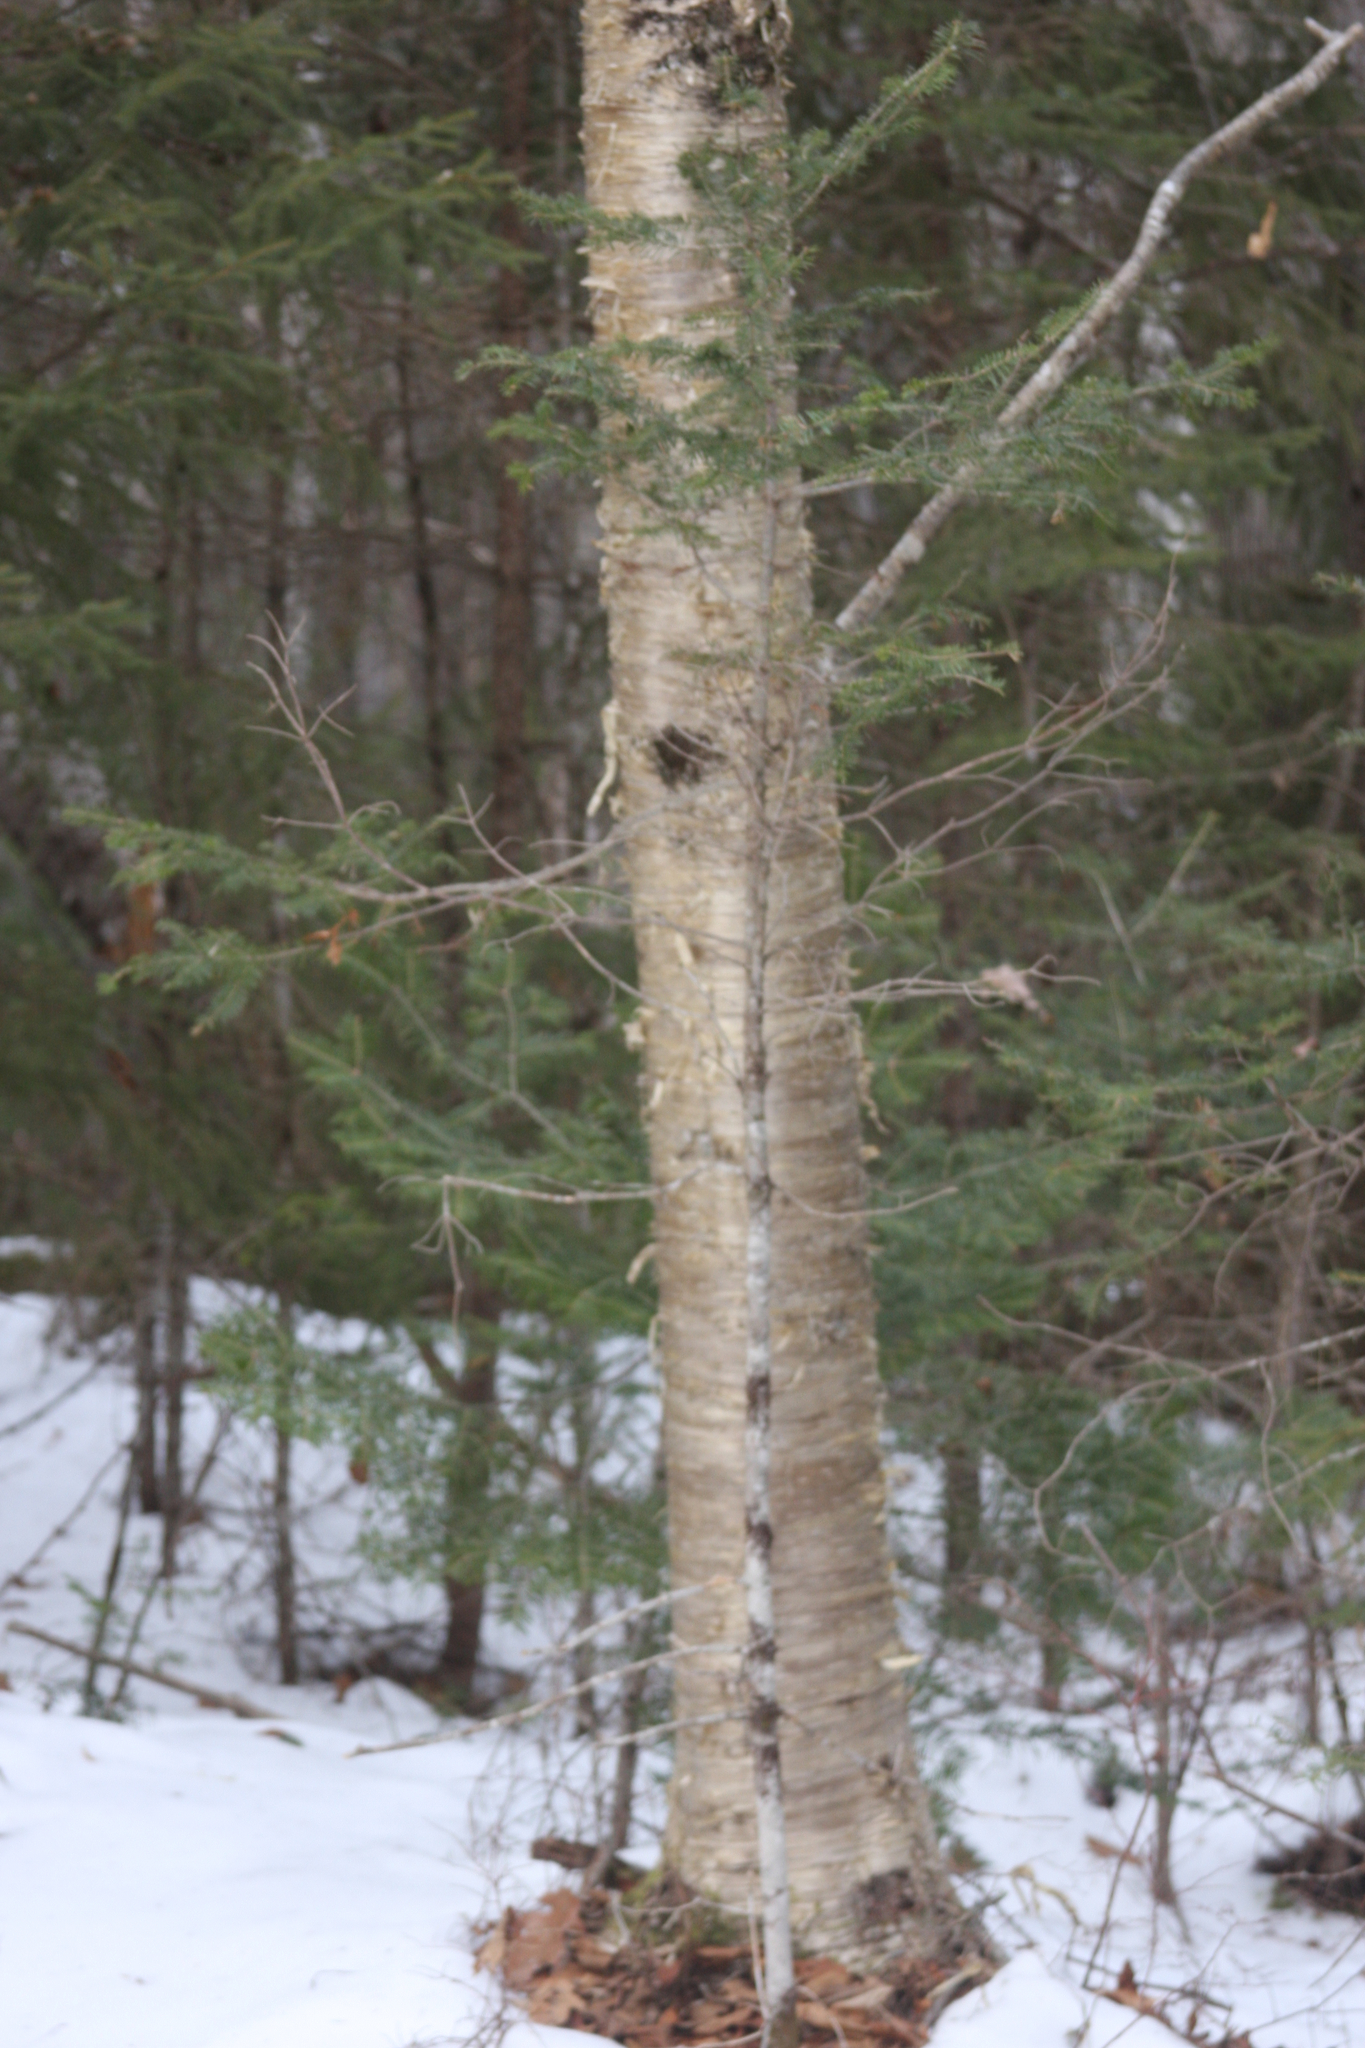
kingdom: Plantae
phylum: Tracheophyta
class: Magnoliopsida
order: Fagales
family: Betulaceae
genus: Betula
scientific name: Betula alleghaniensis
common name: Yellow birch
